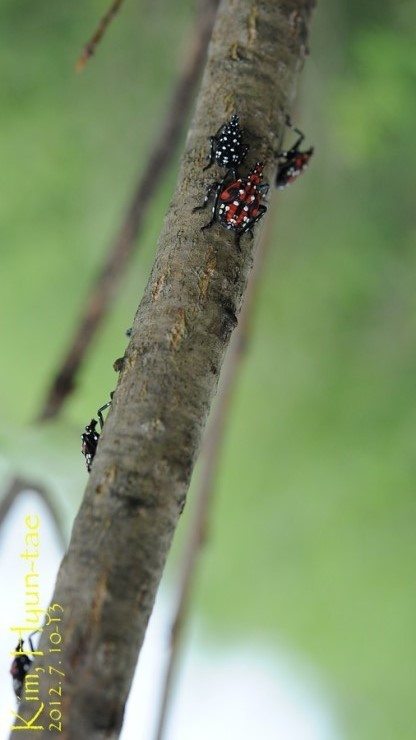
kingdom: Animalia
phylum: Arthropoda
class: Insecta
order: Hemiptera
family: Fulgoridae
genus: Lycorma
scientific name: Lycorma delicatula
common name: Spotted lanternfly
